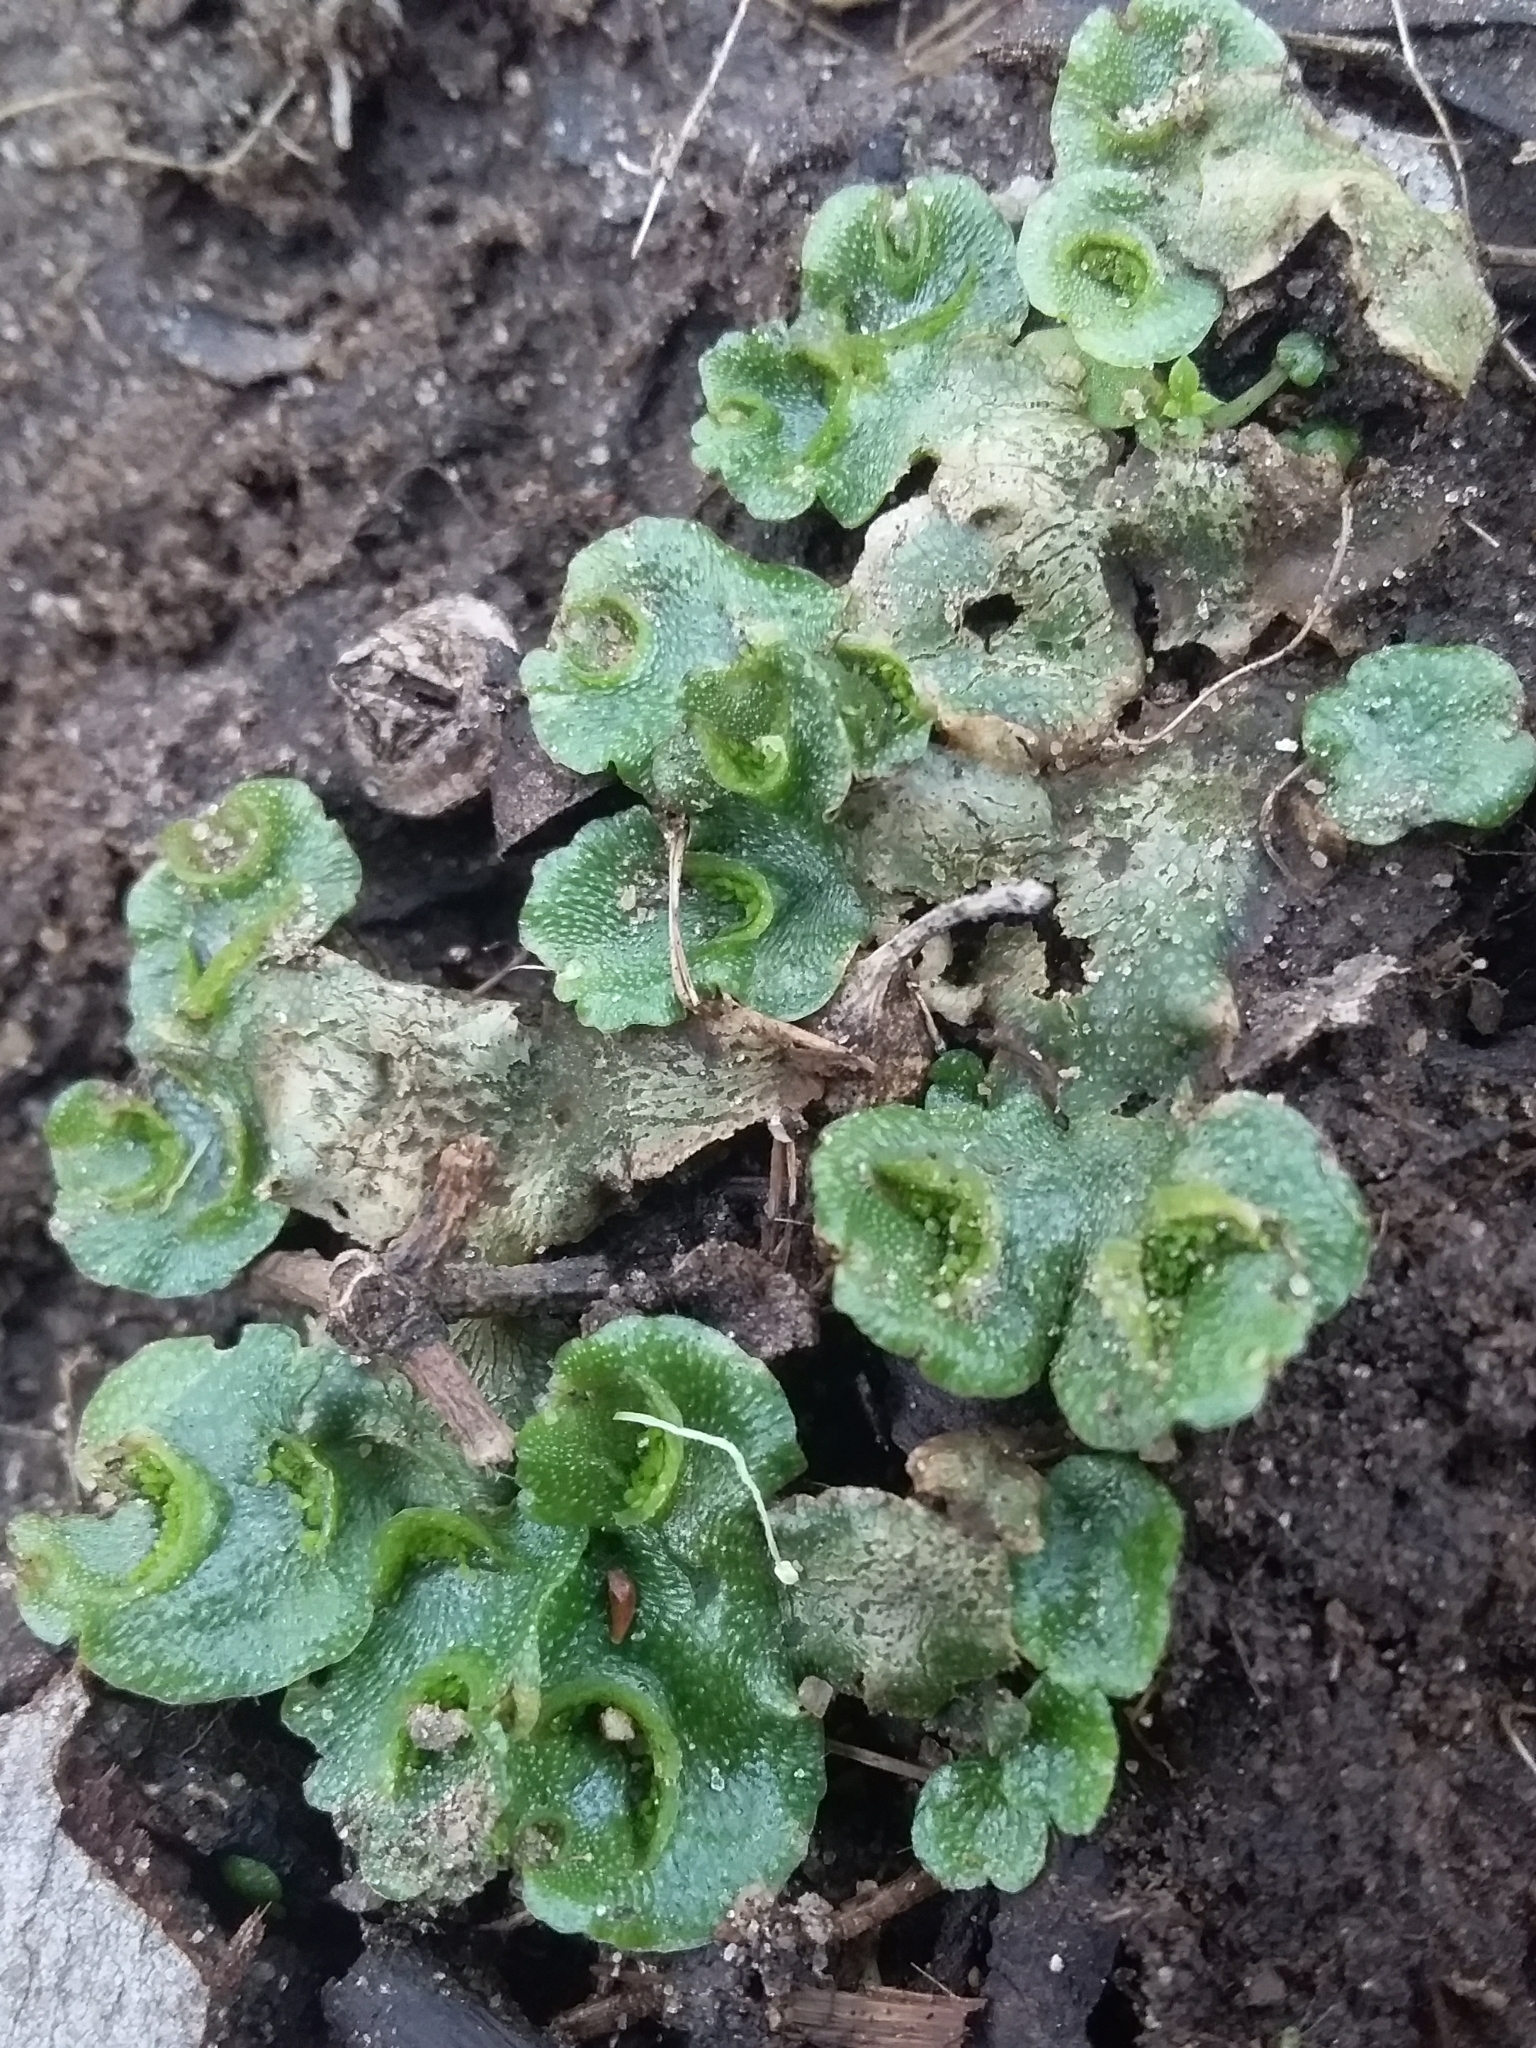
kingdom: Plantae
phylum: Marchantiophyta
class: Marchantiopsida
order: Lunulariales
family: Lunulariaceae
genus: Lunularia
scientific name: Lunularia cruciata
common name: Crescent-cup liverwort
